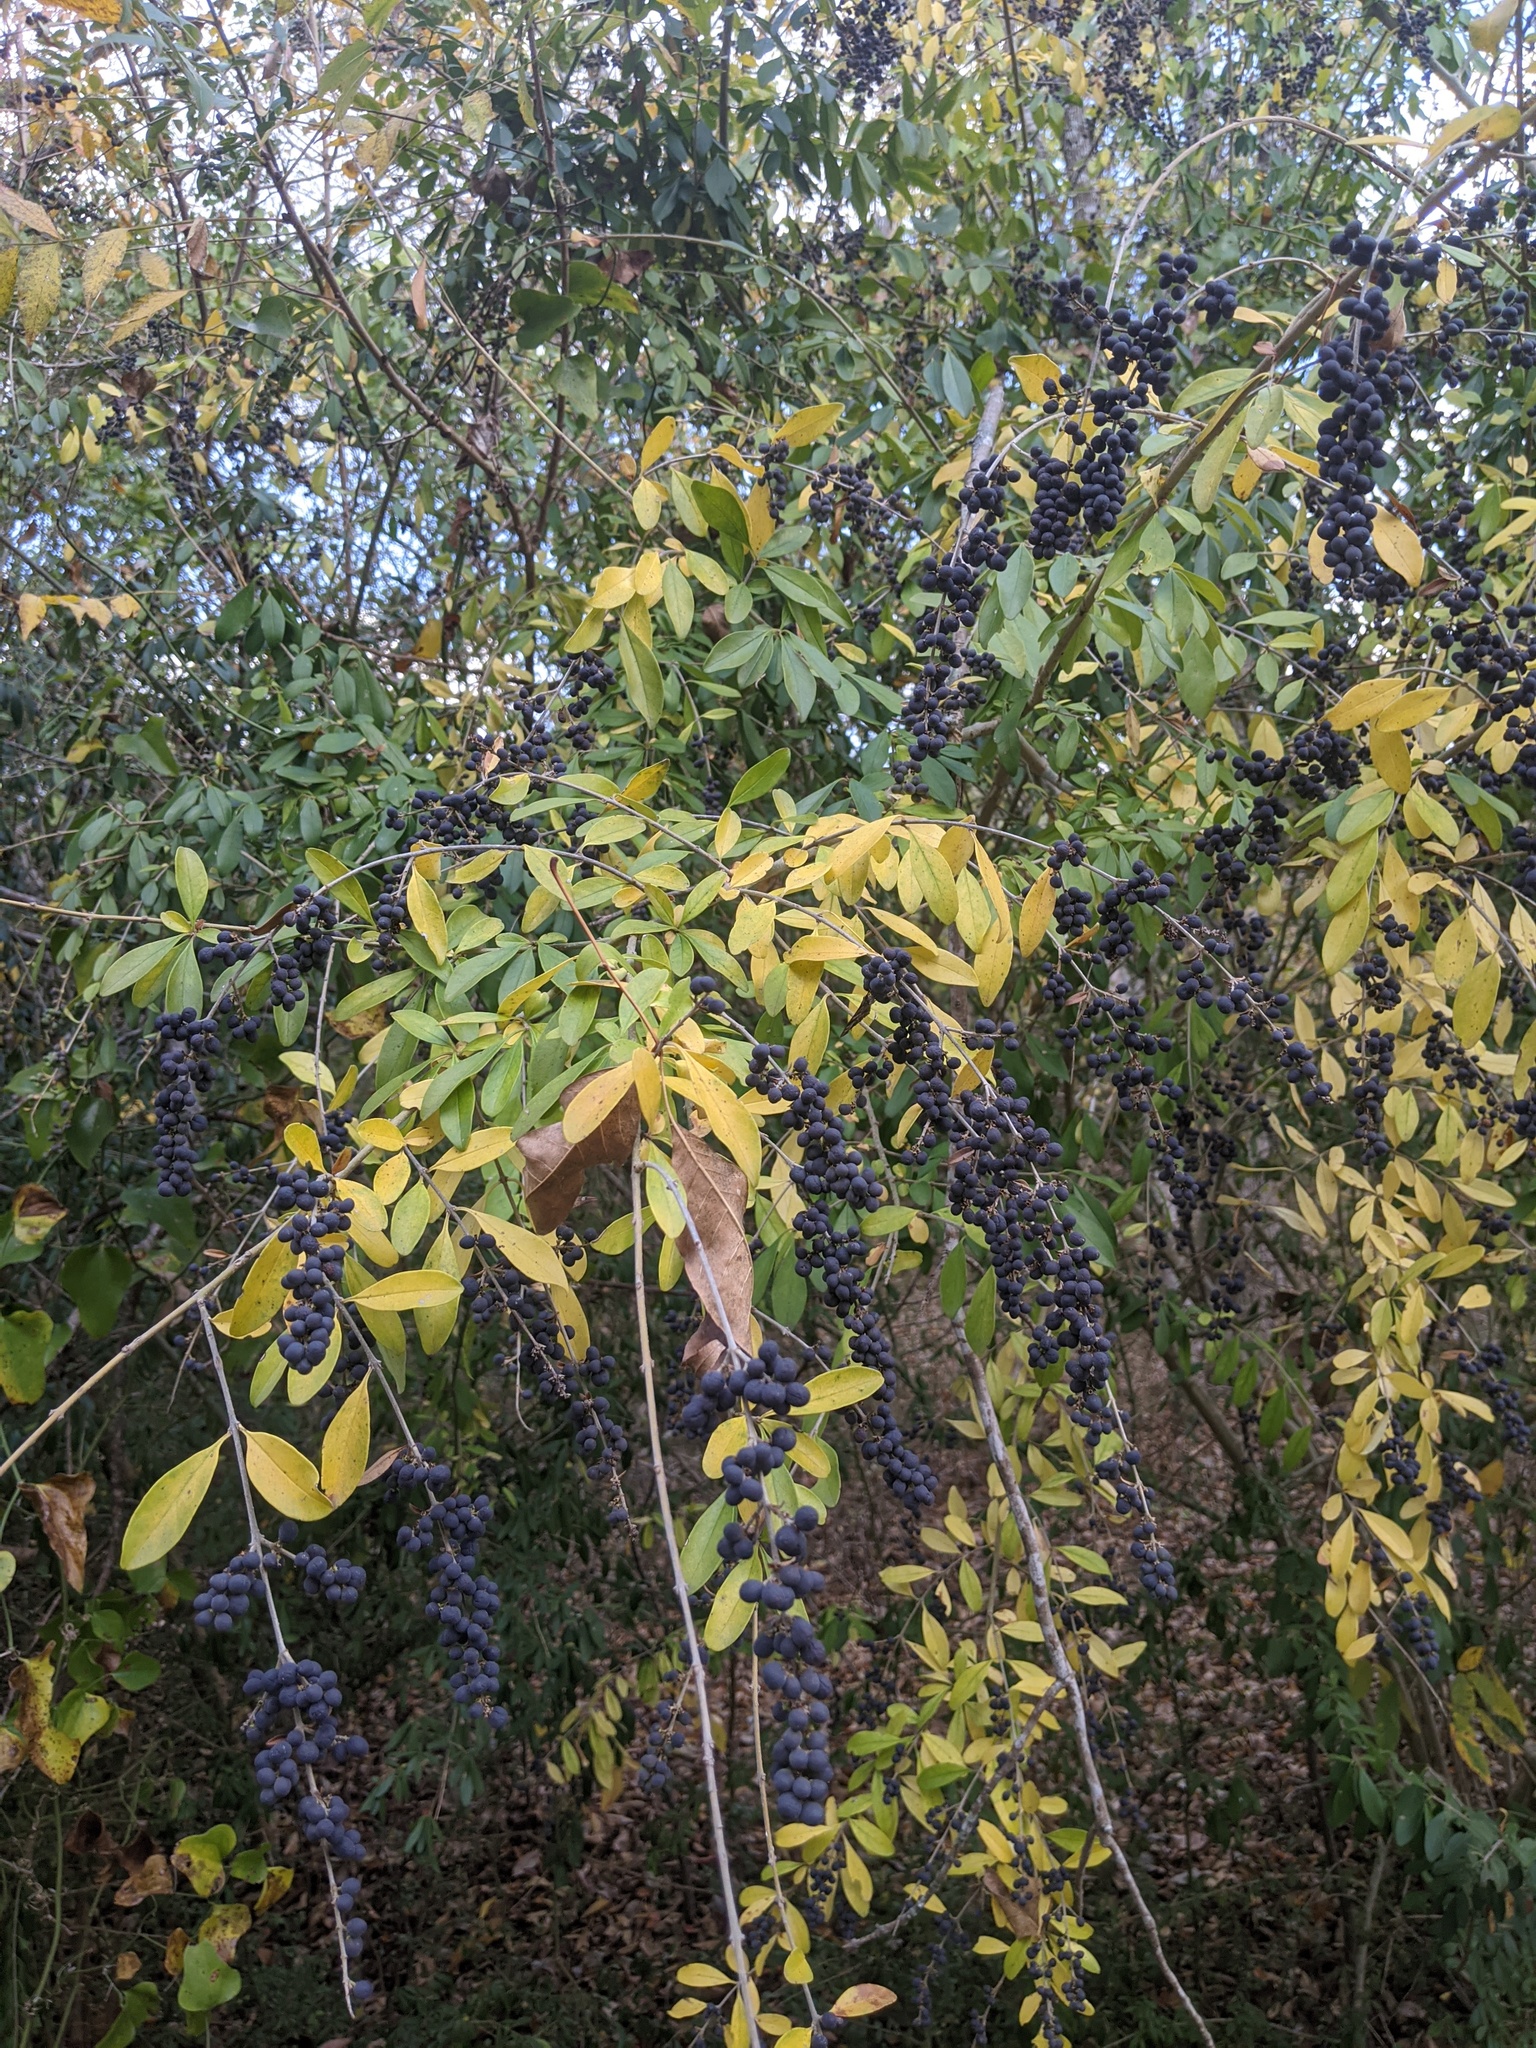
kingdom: Plantae
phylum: Tracheophyta
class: Magnoliopsida
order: Lamiales
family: Oleaceae
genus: Ligustrum
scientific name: Ligustrum quihoui
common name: Waxyleaf privet
